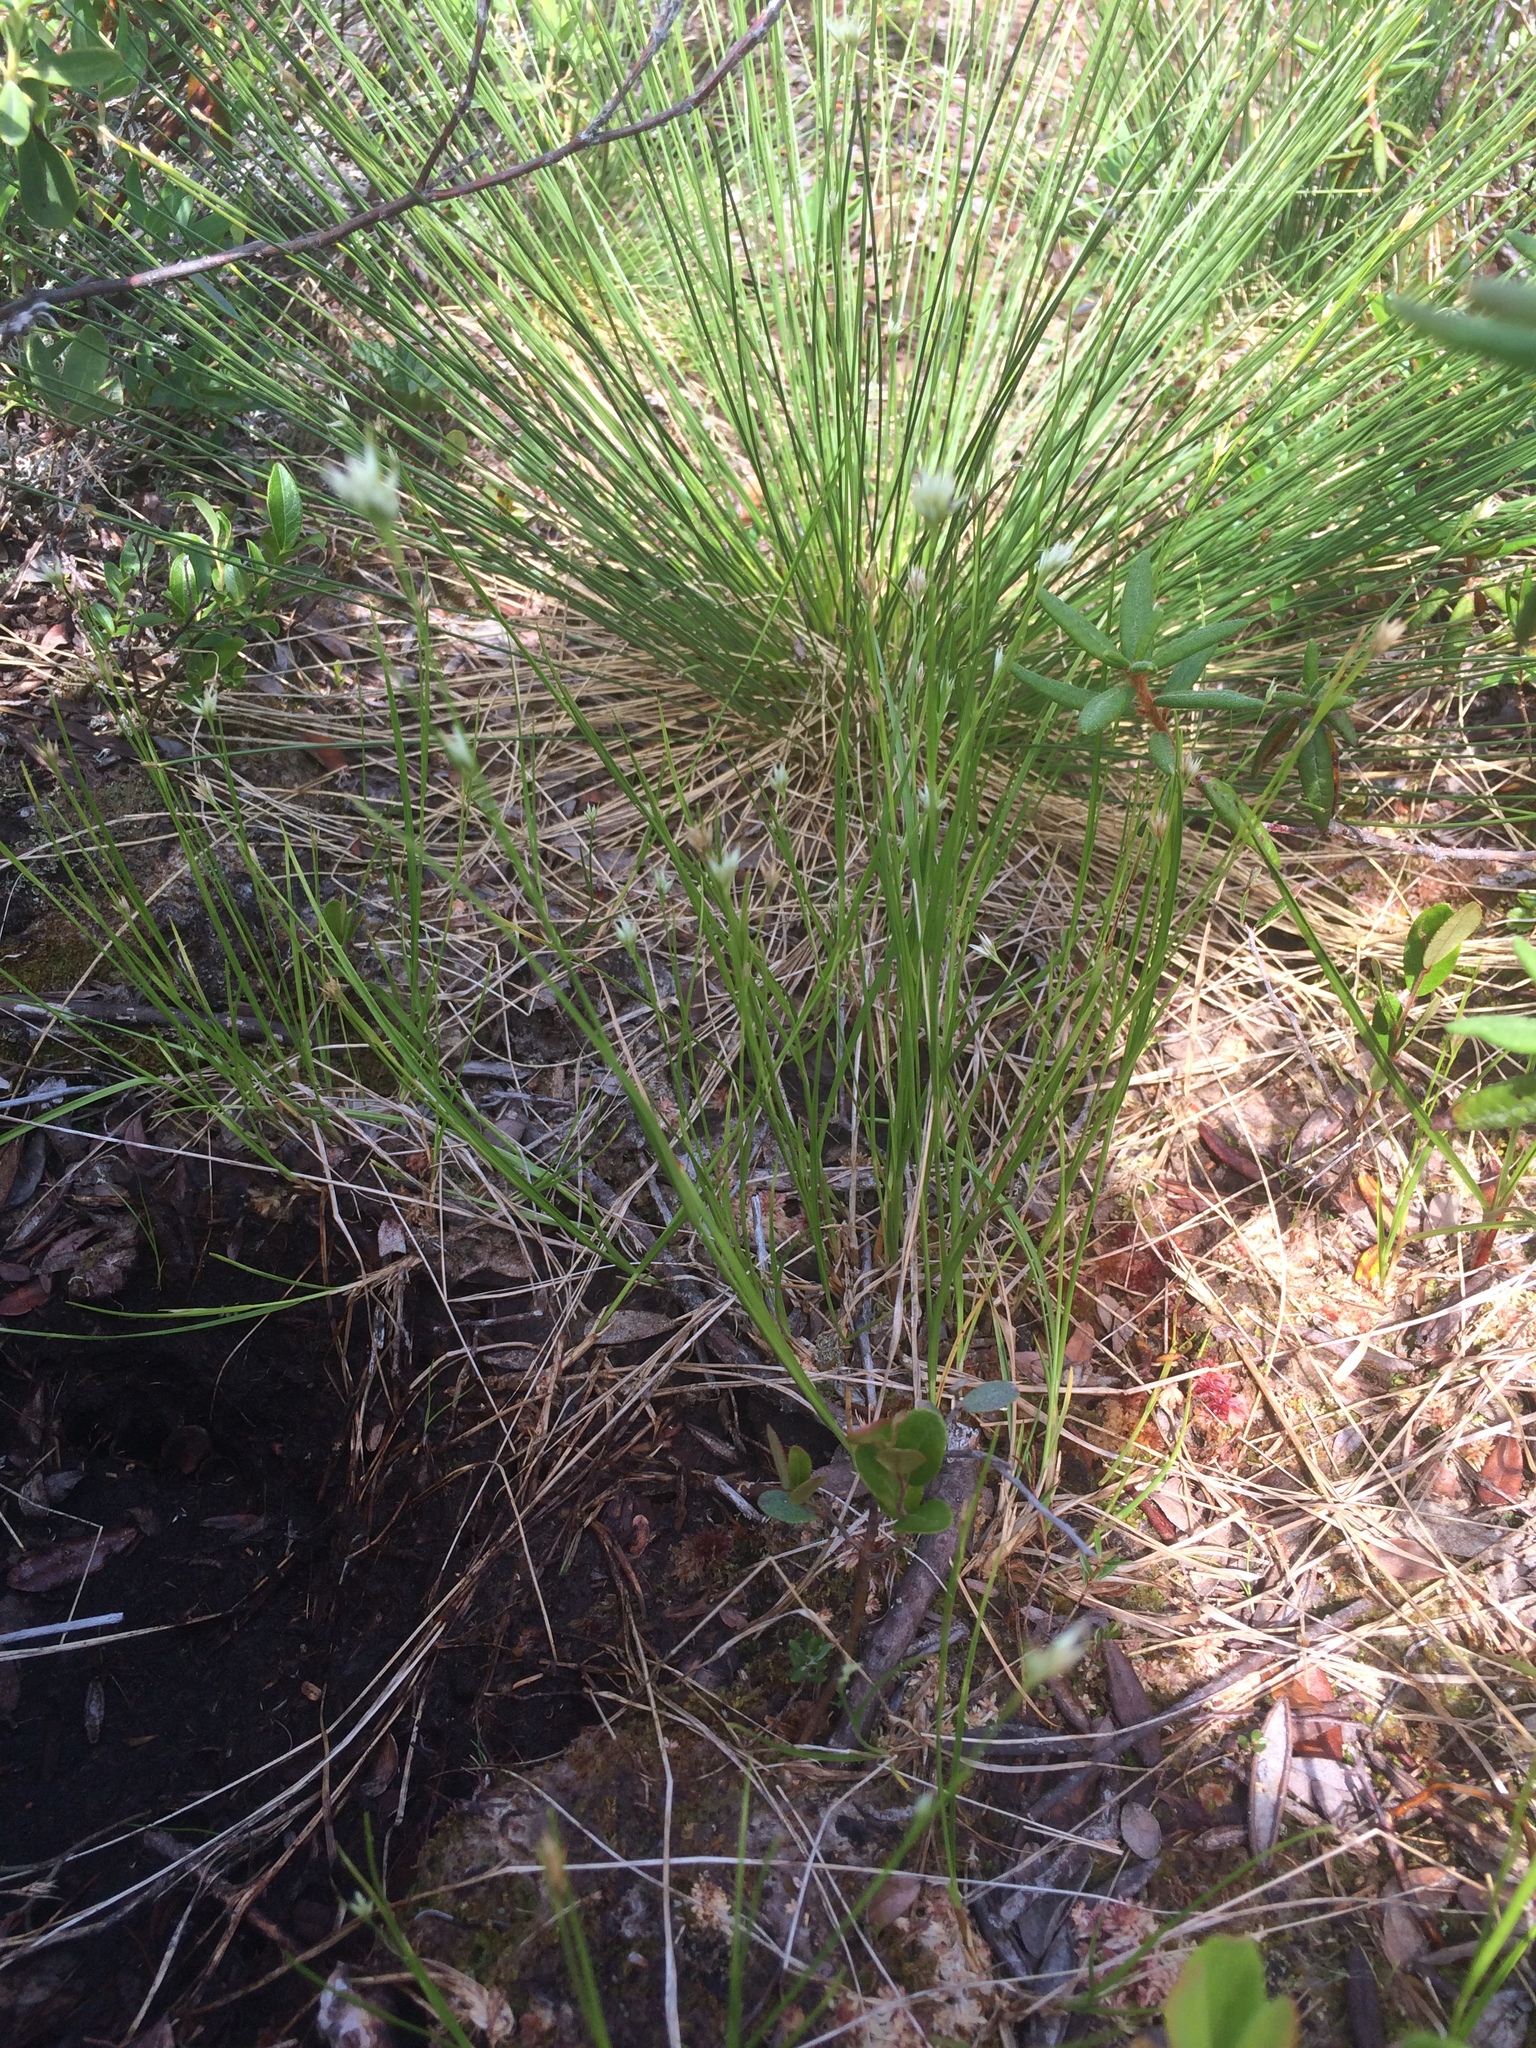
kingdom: Plantae
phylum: Tracheophyta
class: Liliopsida
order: Poales
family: Cyperaceae
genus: Rhynchospora
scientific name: Rhynchospora alba
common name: White beak-sedge
